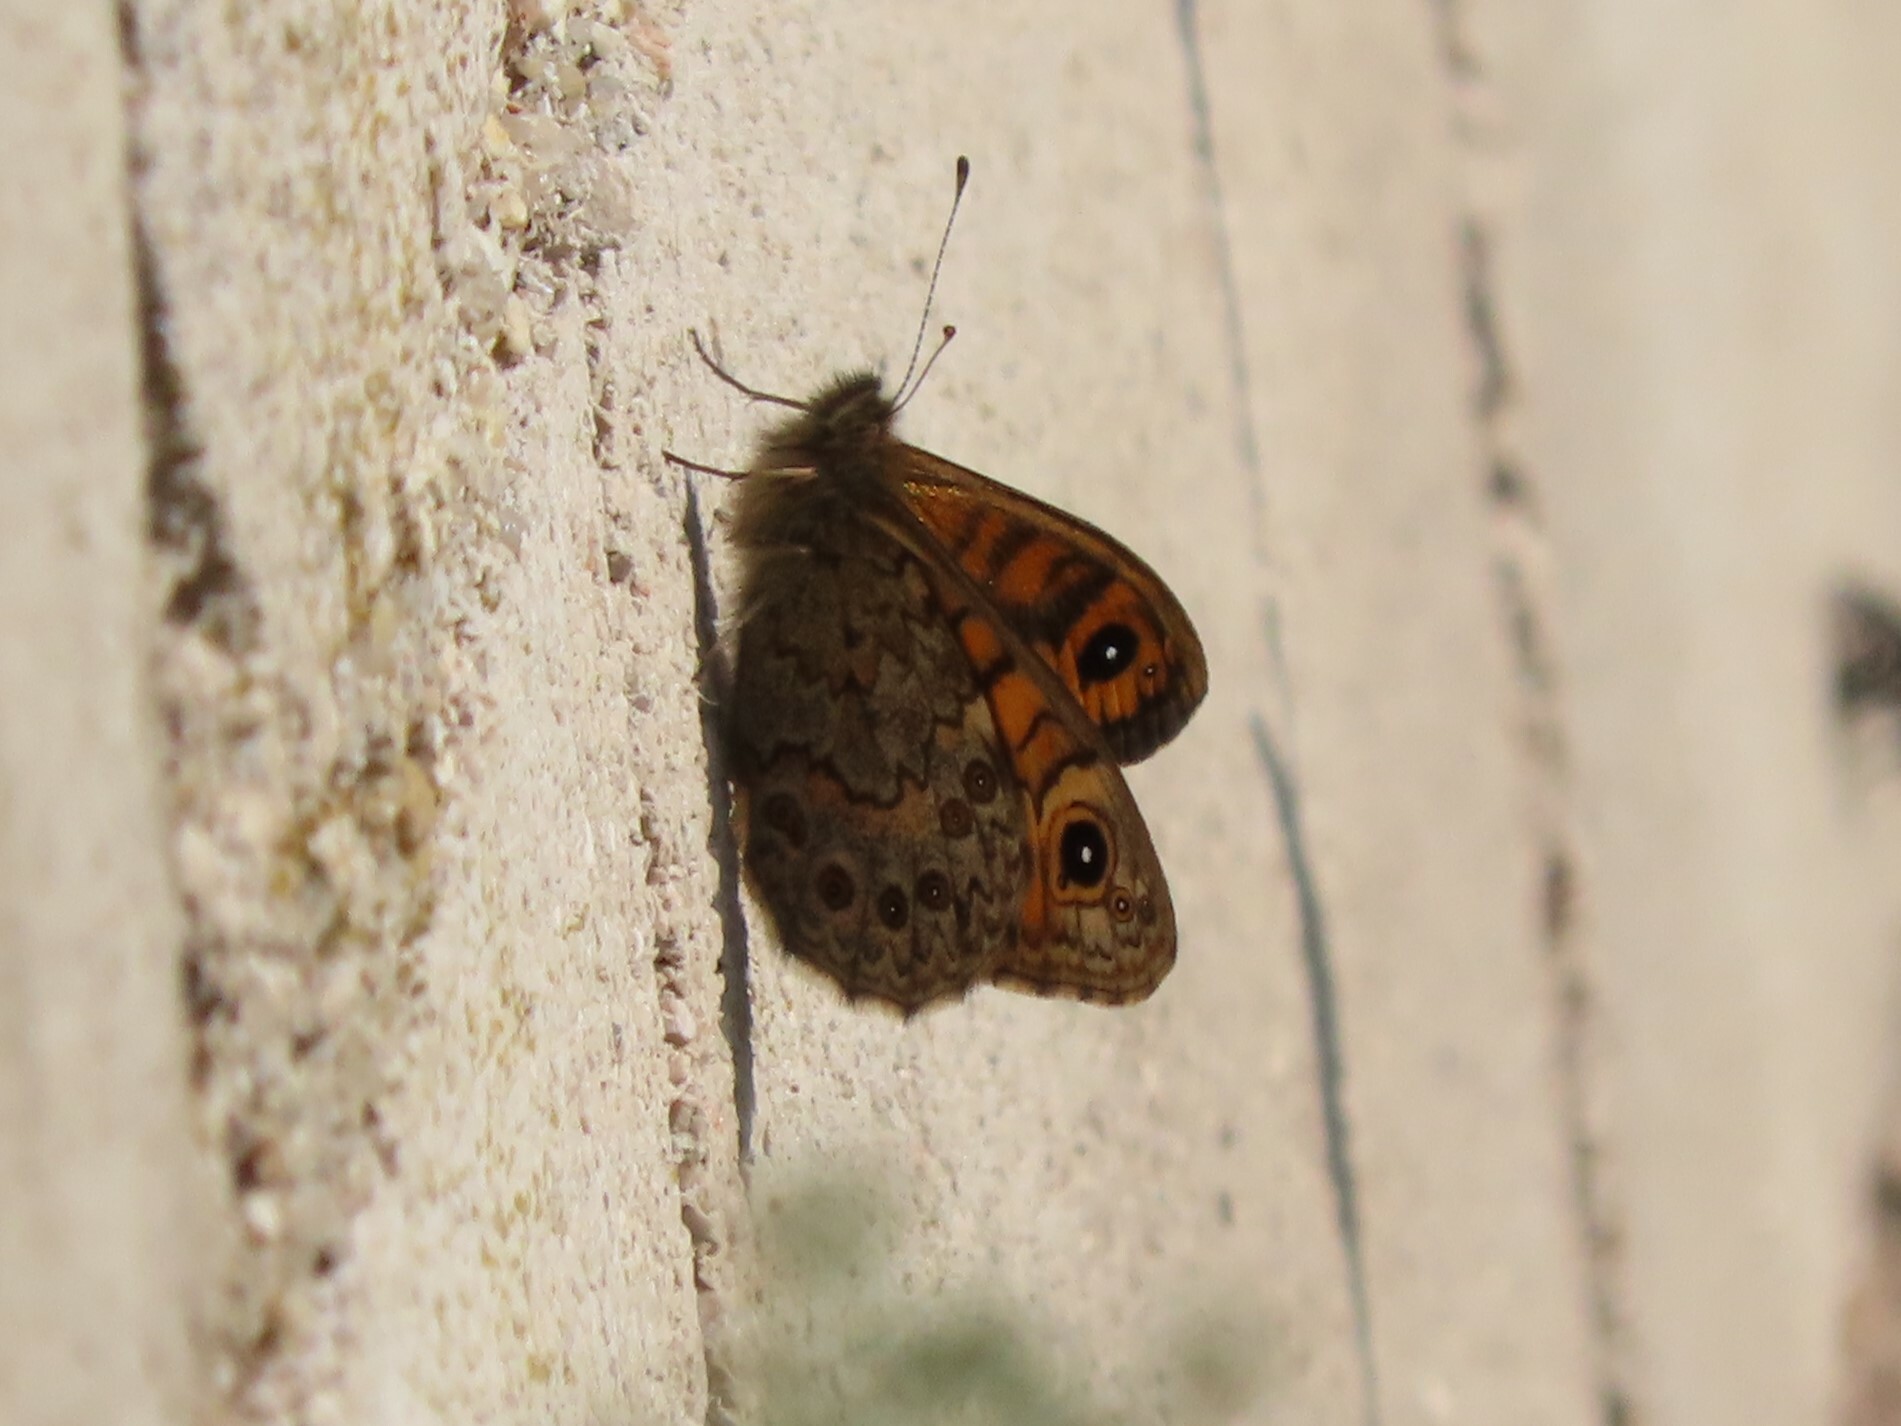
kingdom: Animalia
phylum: Arthropoda
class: Insecta
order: Lepidoptera
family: Nymphalidae
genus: Pararge
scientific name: Pararge Lasiommata megera
